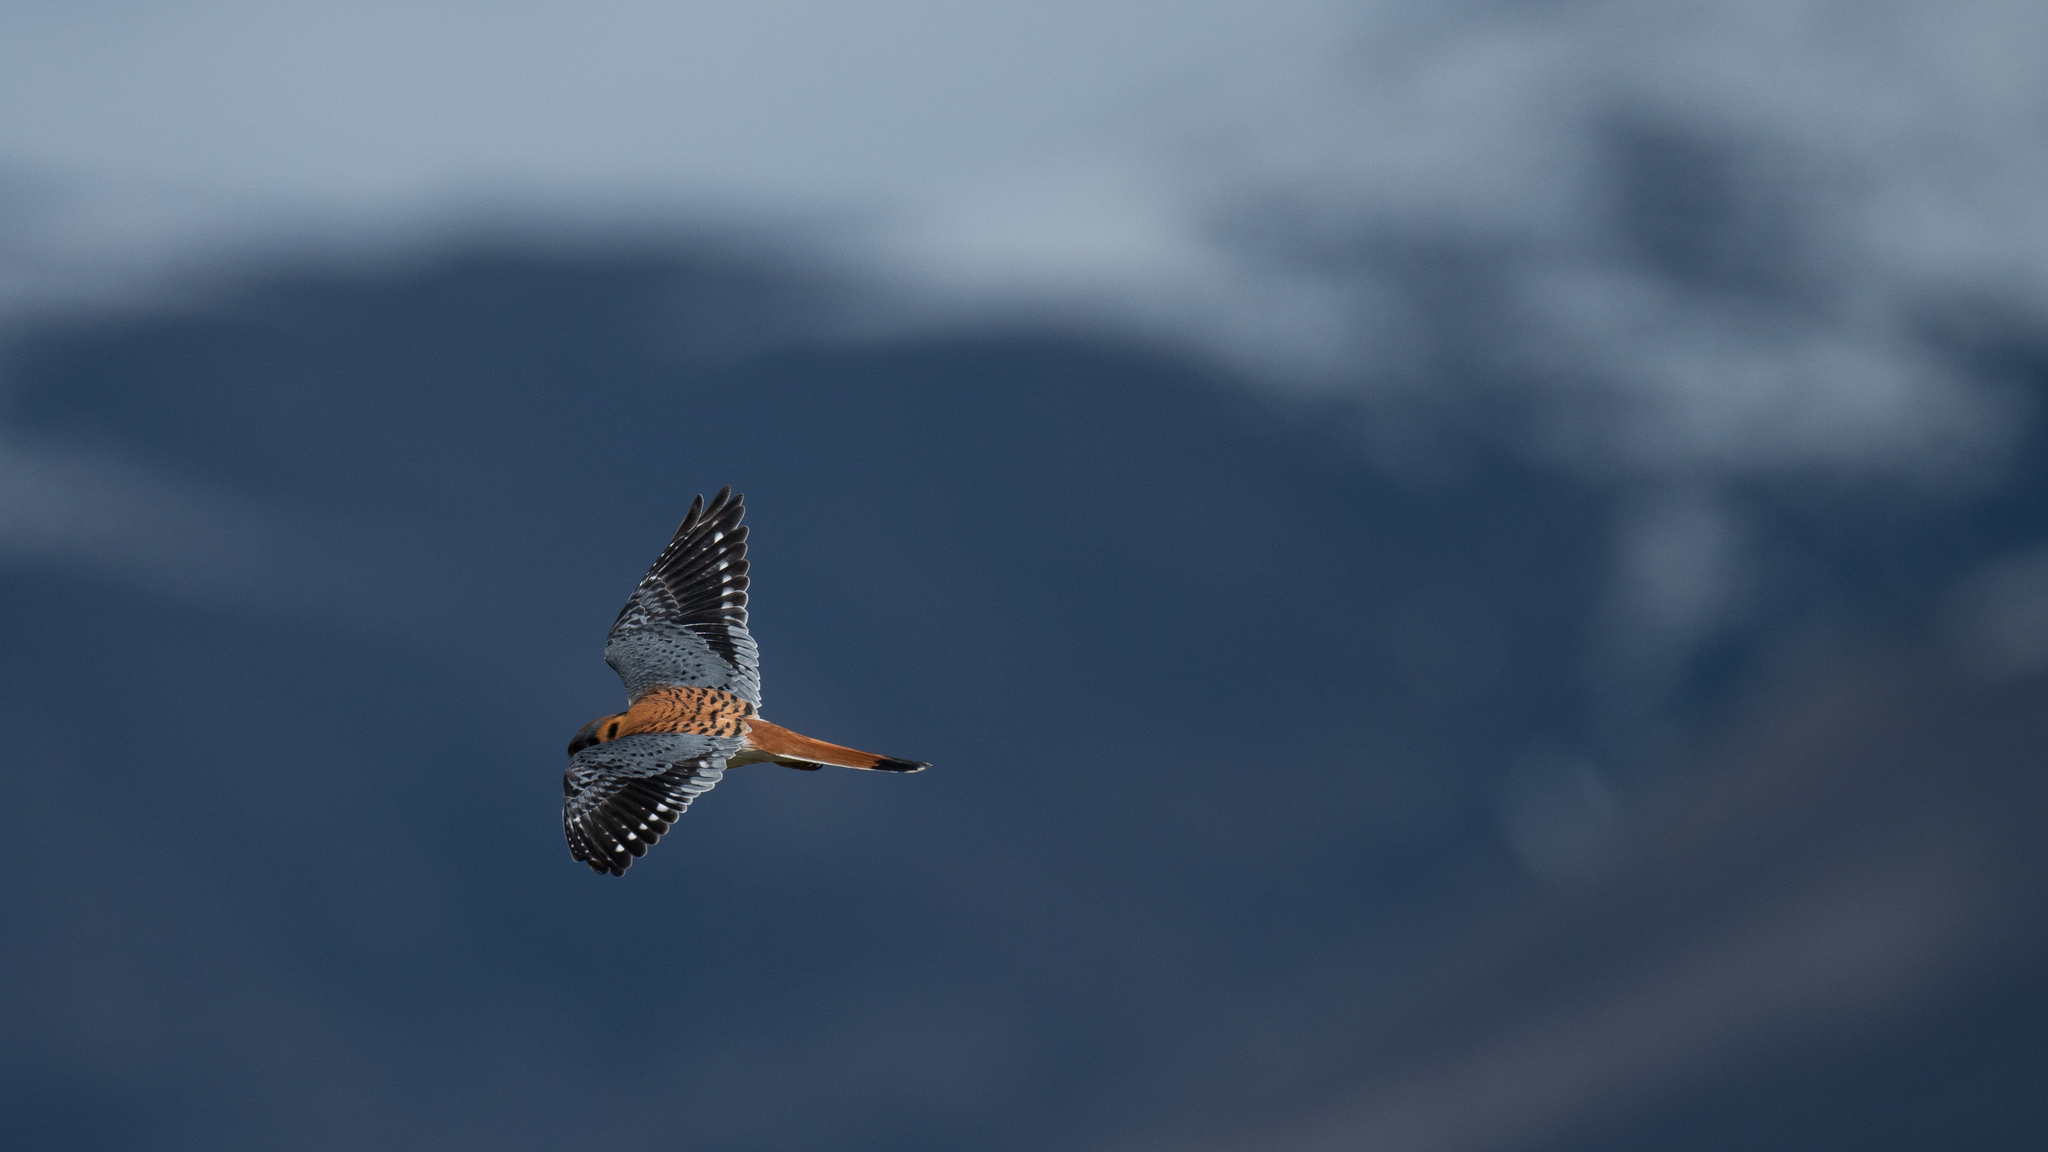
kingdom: Animalia
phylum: Chordata
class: Aves
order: Falconiformes
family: Falconidae
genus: Falco
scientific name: Falco sparverius
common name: American kestrel
